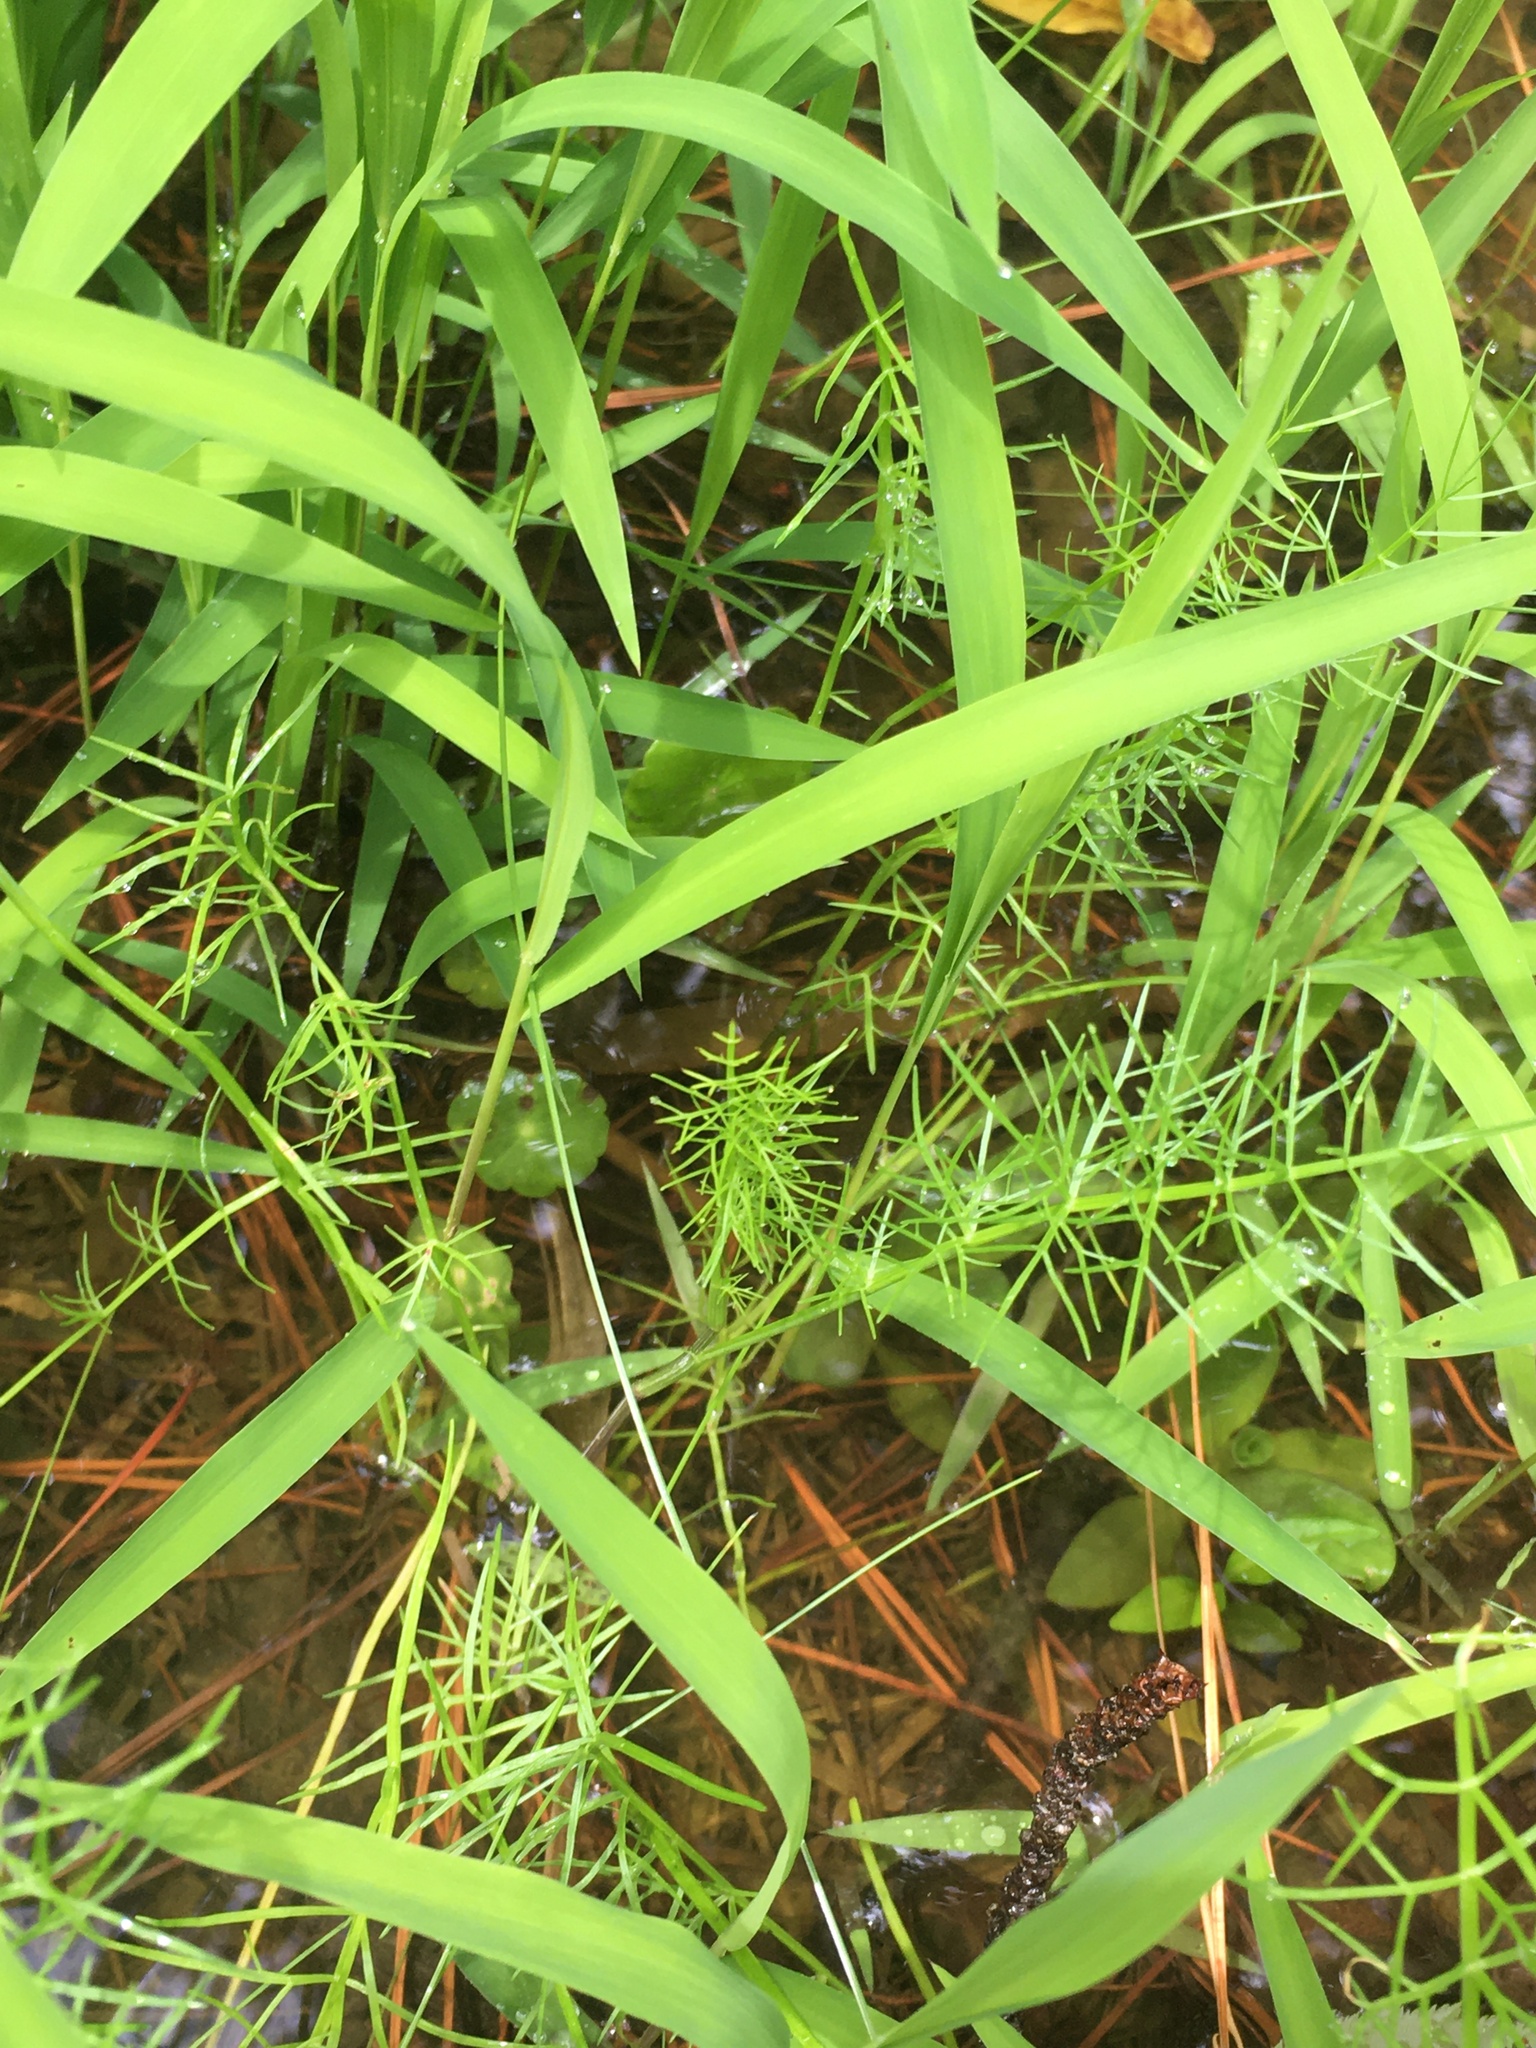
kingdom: Plantae
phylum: Tracheophyta
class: Magnoliopsida
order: Apiales
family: Apiaceae
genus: Ptilimnium
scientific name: Ptilimnium capillaceum
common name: Herbwilliam
